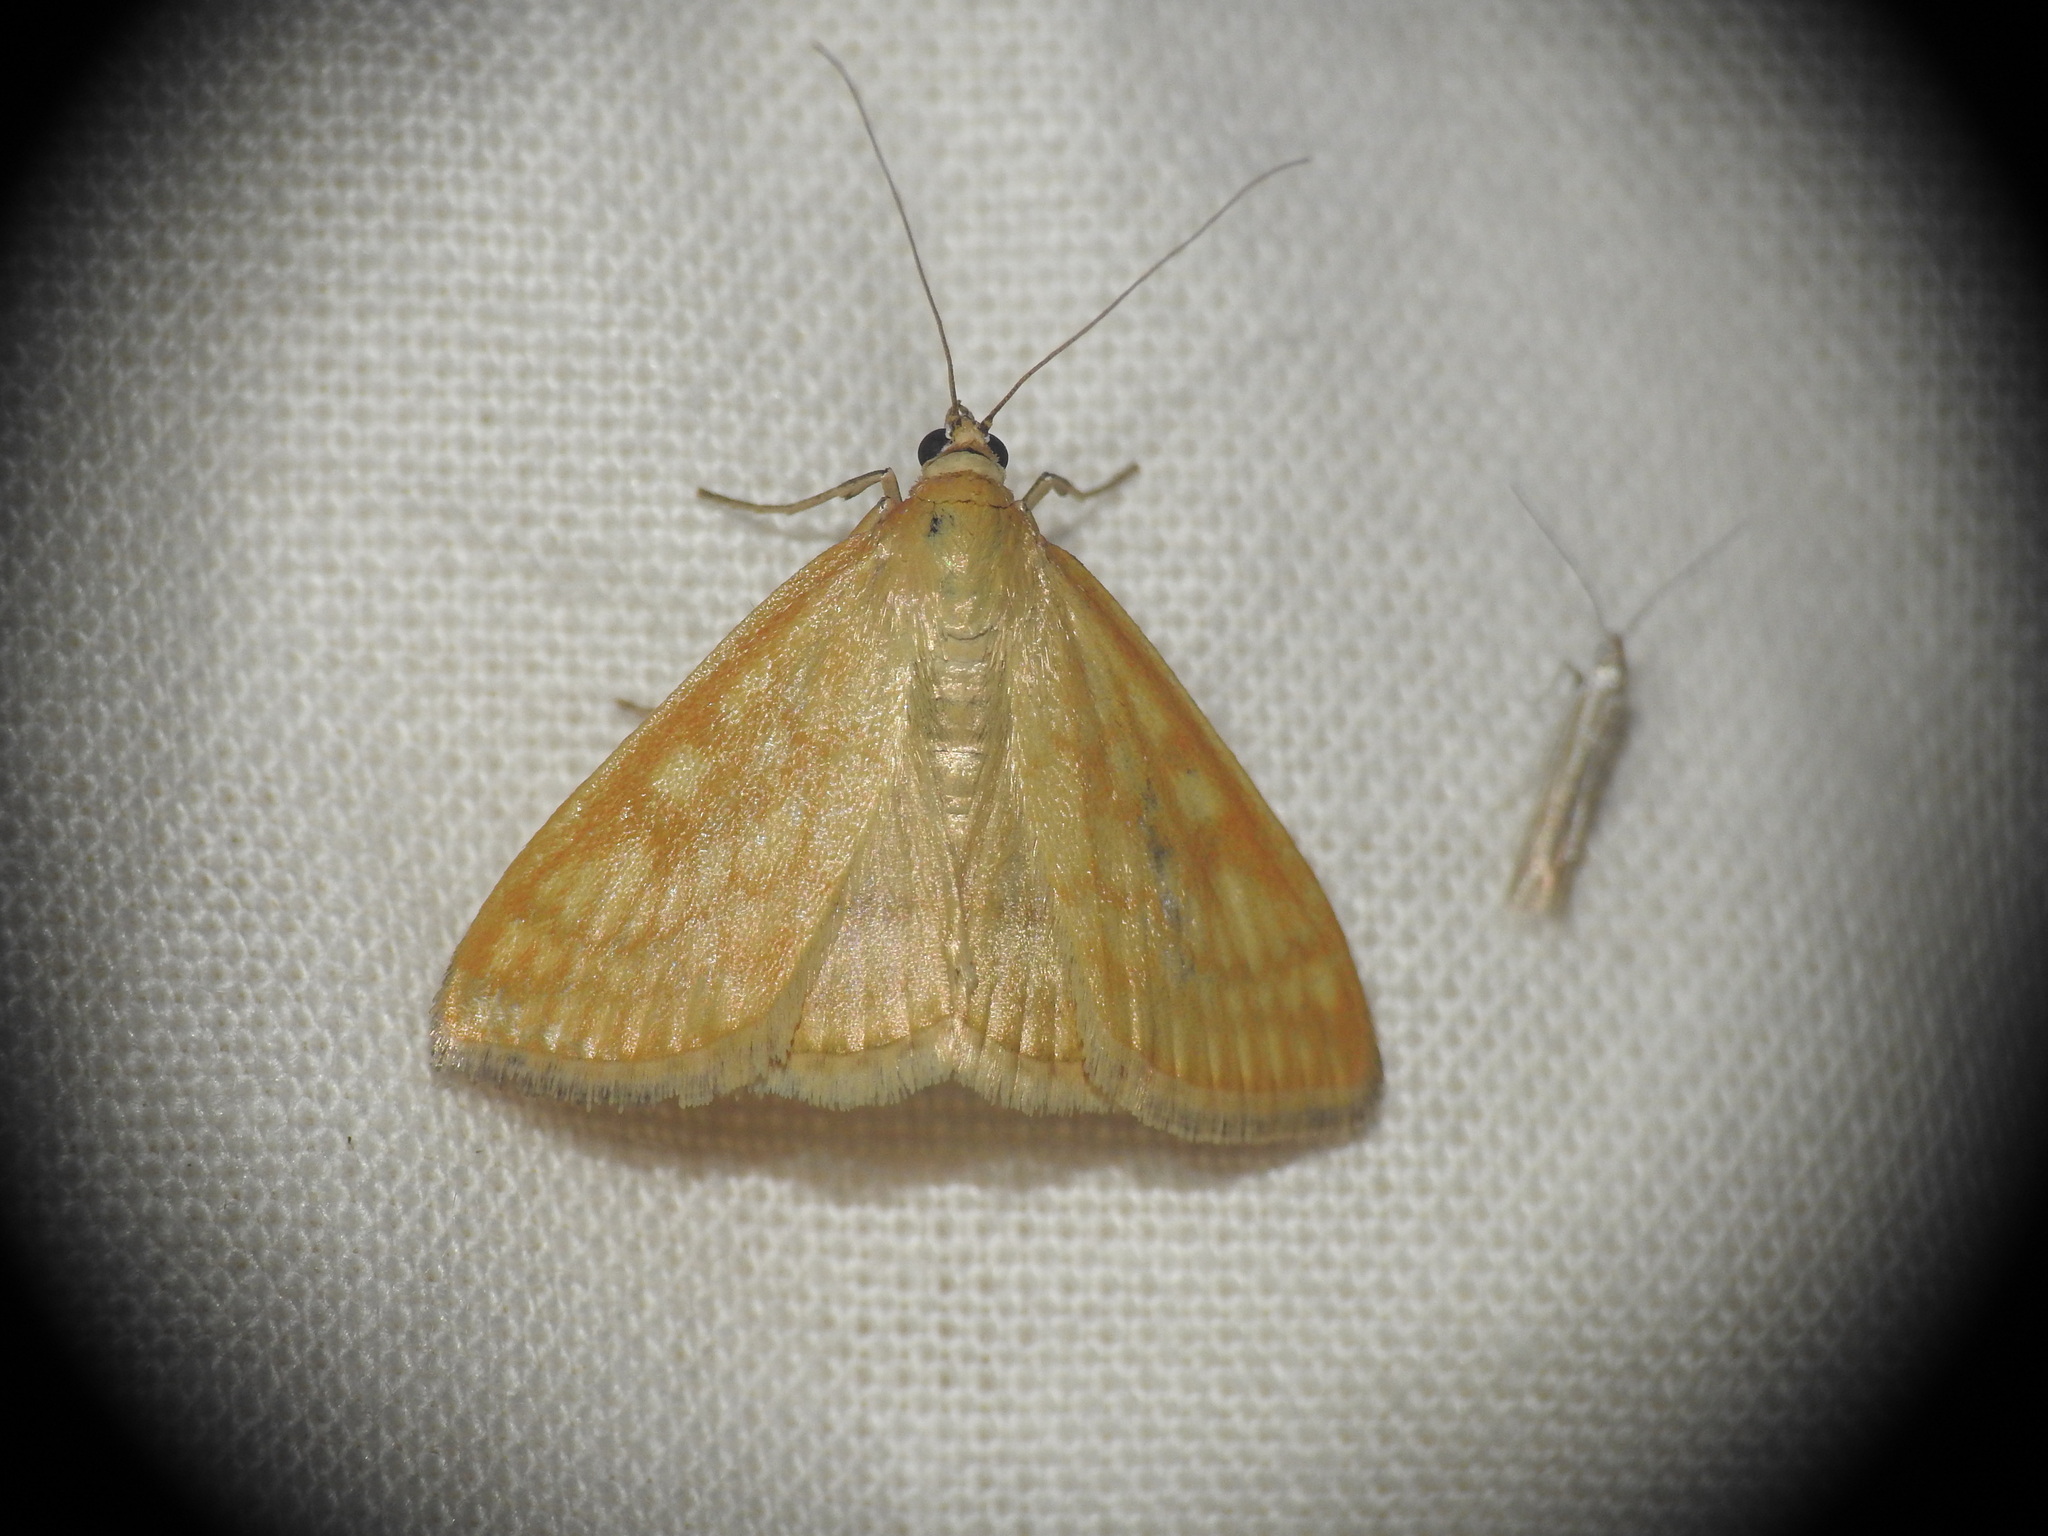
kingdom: Animalia
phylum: Arthropoda
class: Insecta
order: Lepidoptera
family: Crambidae
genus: Sitochroa
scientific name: Sitochroa verticalis
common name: Lesser pearl
